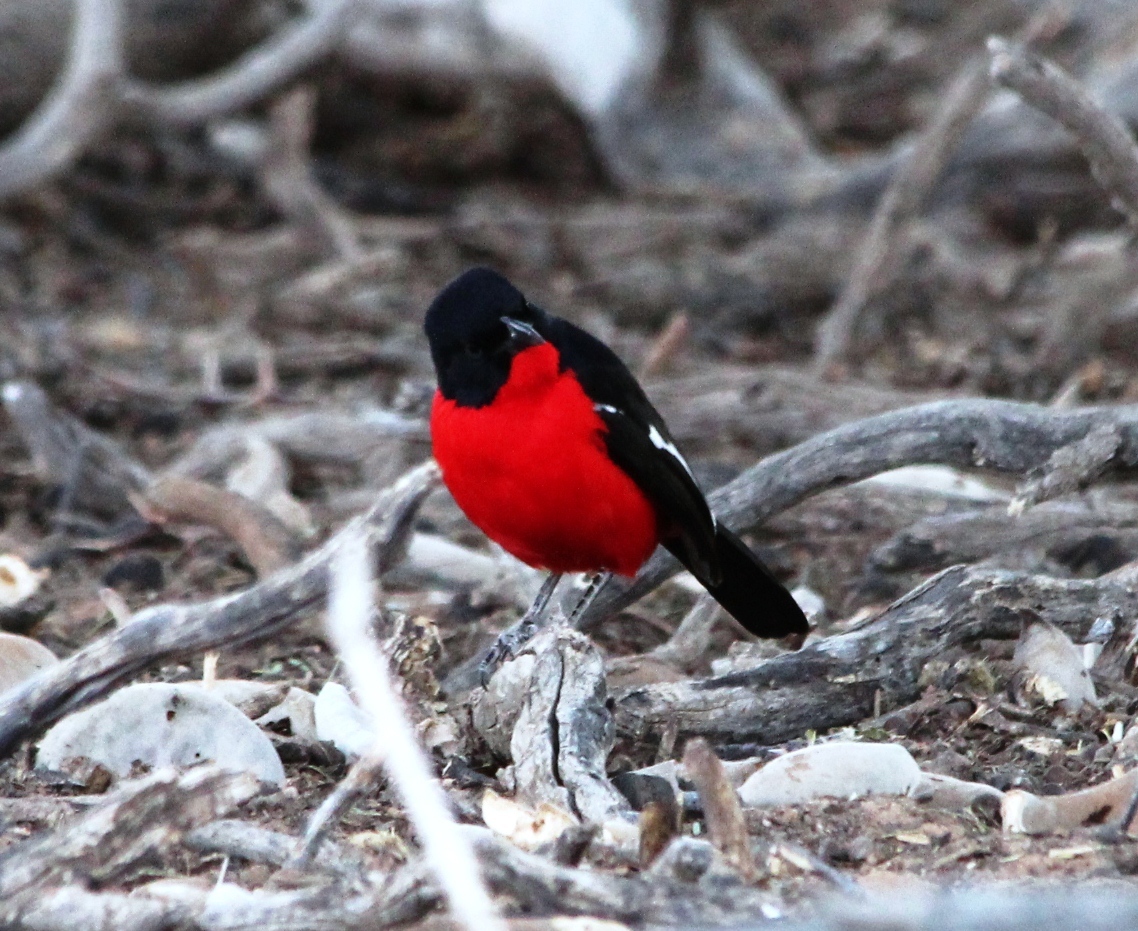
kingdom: Animalia
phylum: Chordata
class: Aves
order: Passeriformes
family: Malaconotidae
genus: Laniarius
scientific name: Laniarius atrococcineus
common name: Crimson-breasted shrike
